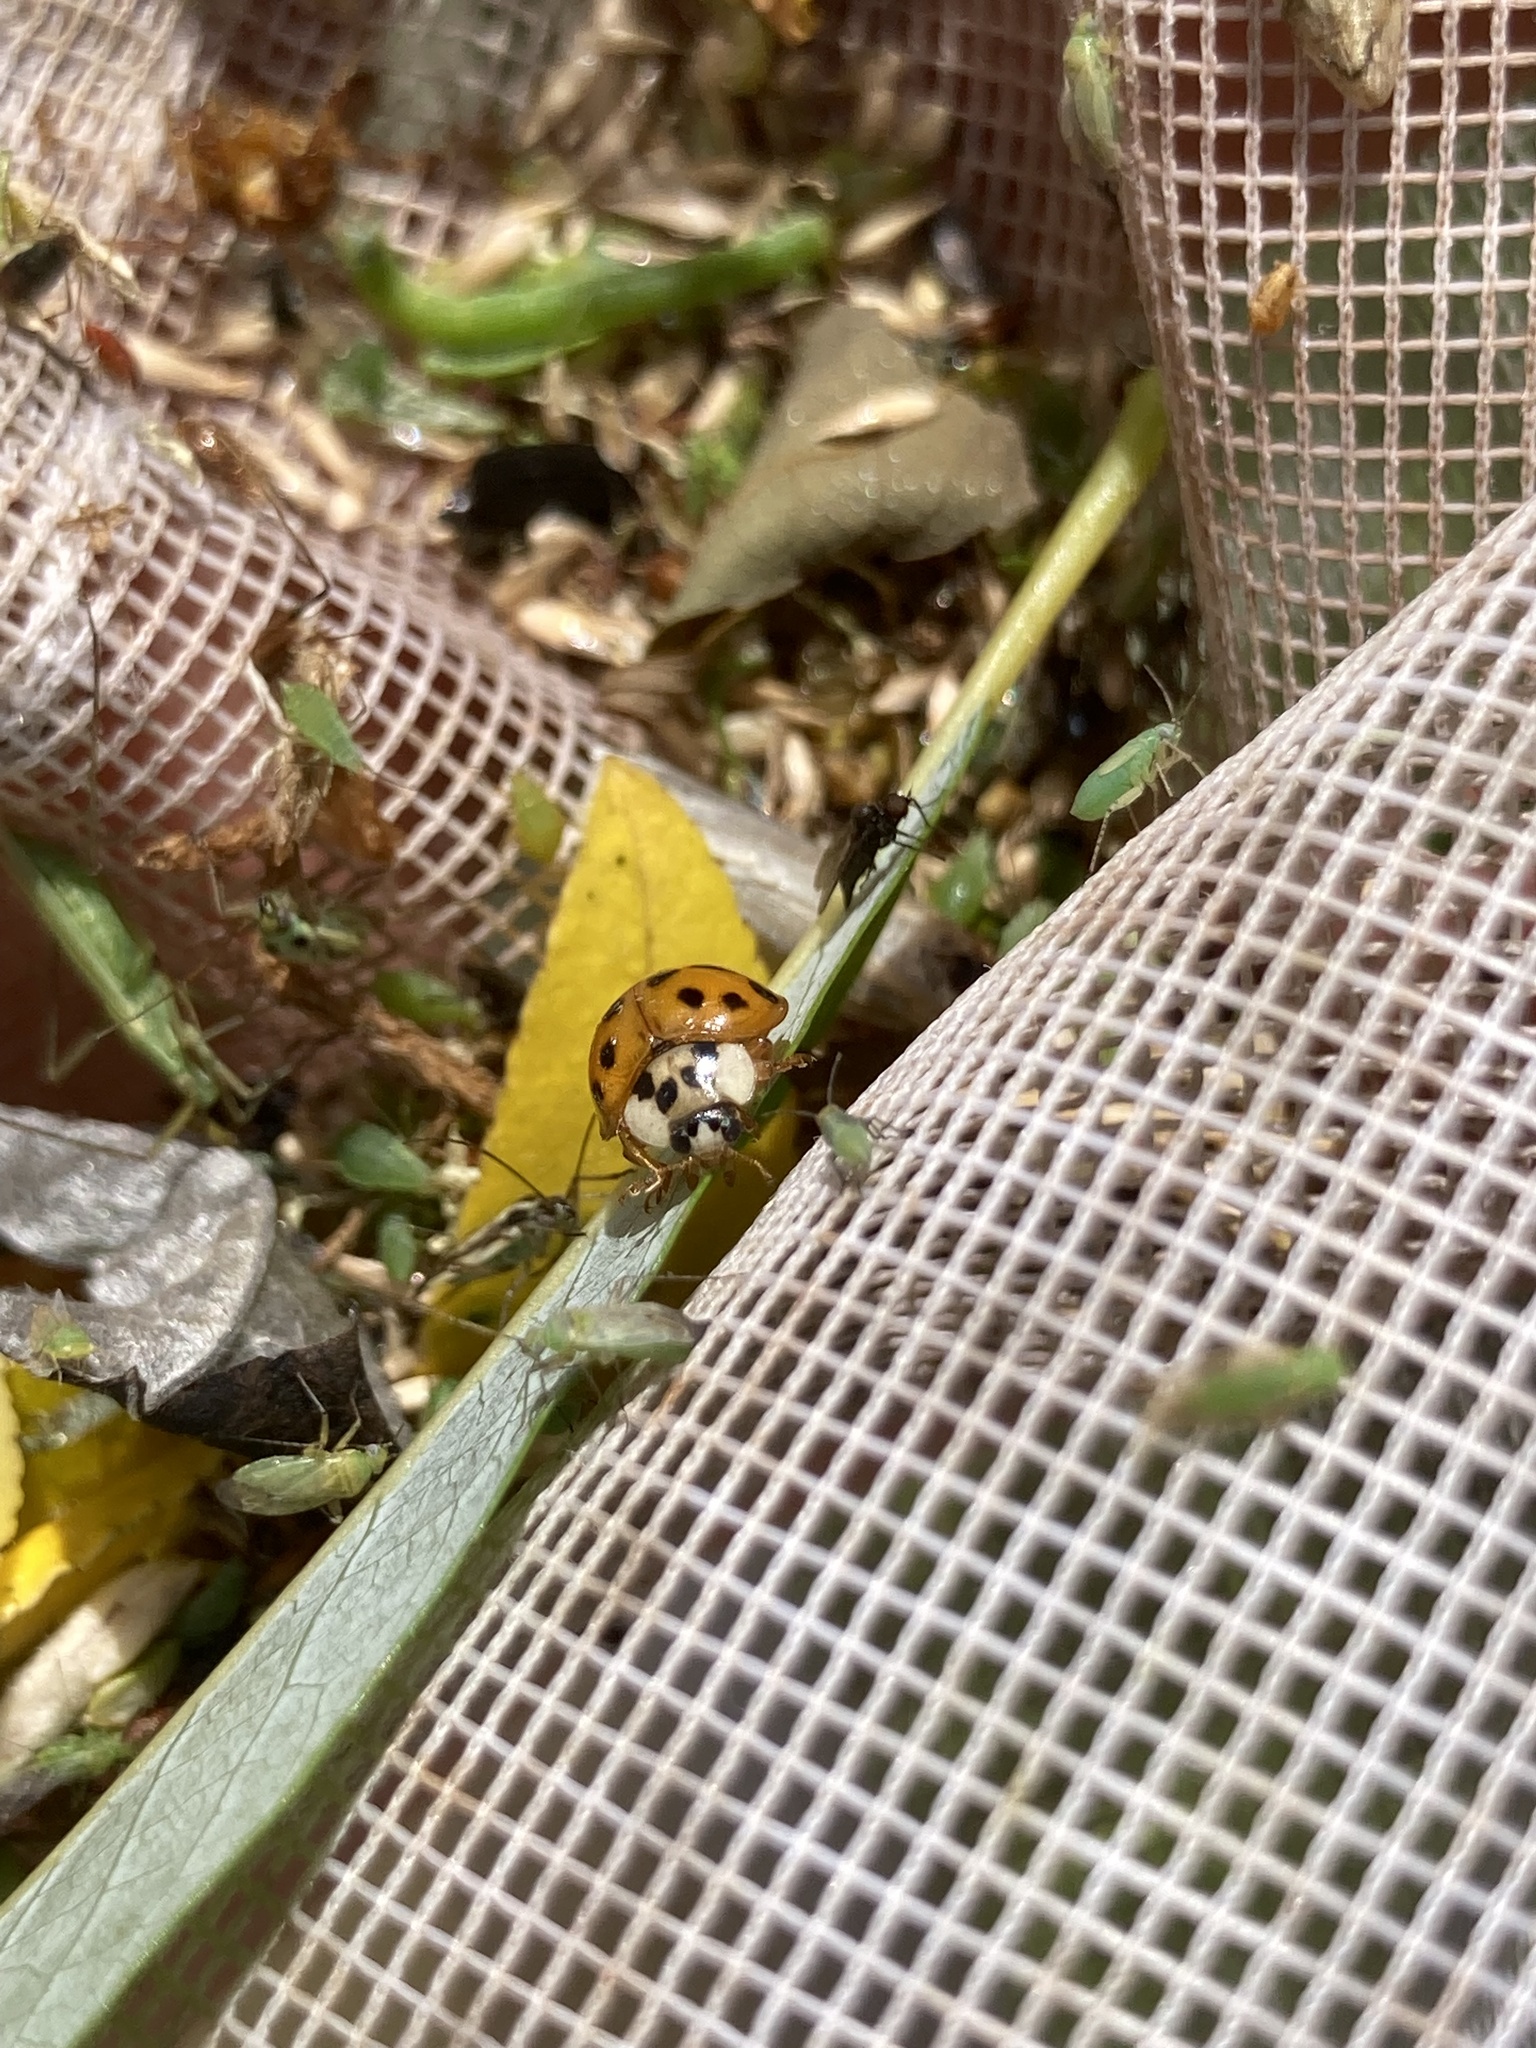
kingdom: Animalia
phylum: Arthropoda
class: Insecta
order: Coleoptera
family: Coccinellidae
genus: Harmonia
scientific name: Harmonia axyridis
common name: Harlequin ladybird
